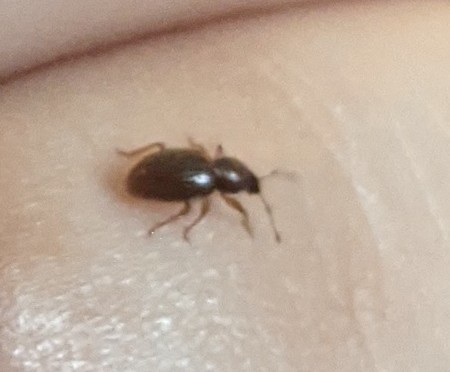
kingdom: Animalia
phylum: Arthropoda
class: Insecta
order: Coleoptera
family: Curculionidae
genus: Exomias
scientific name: Exomias pellucidus
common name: Hairy spider weevil
